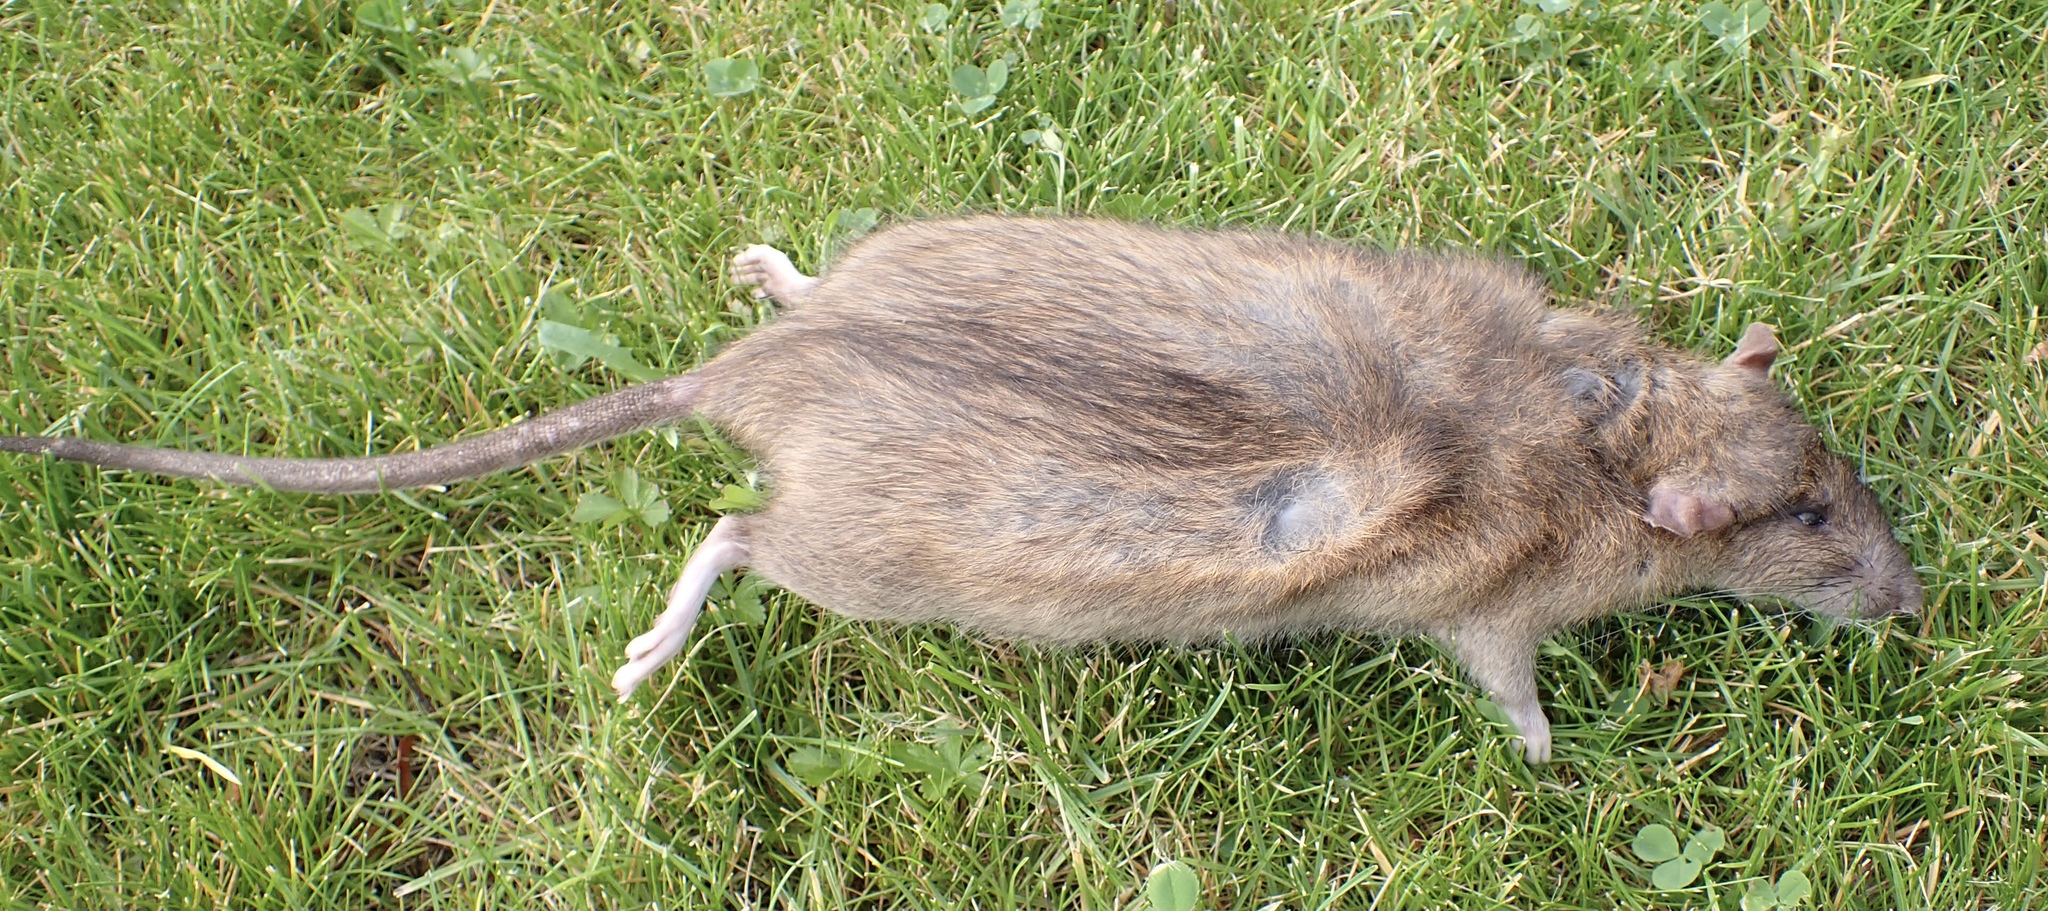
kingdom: Animalia
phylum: Chordata
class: Mammalia
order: Rodentia
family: Muridae
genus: Rattus
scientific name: Rattus norvegicus
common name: Brown rat
